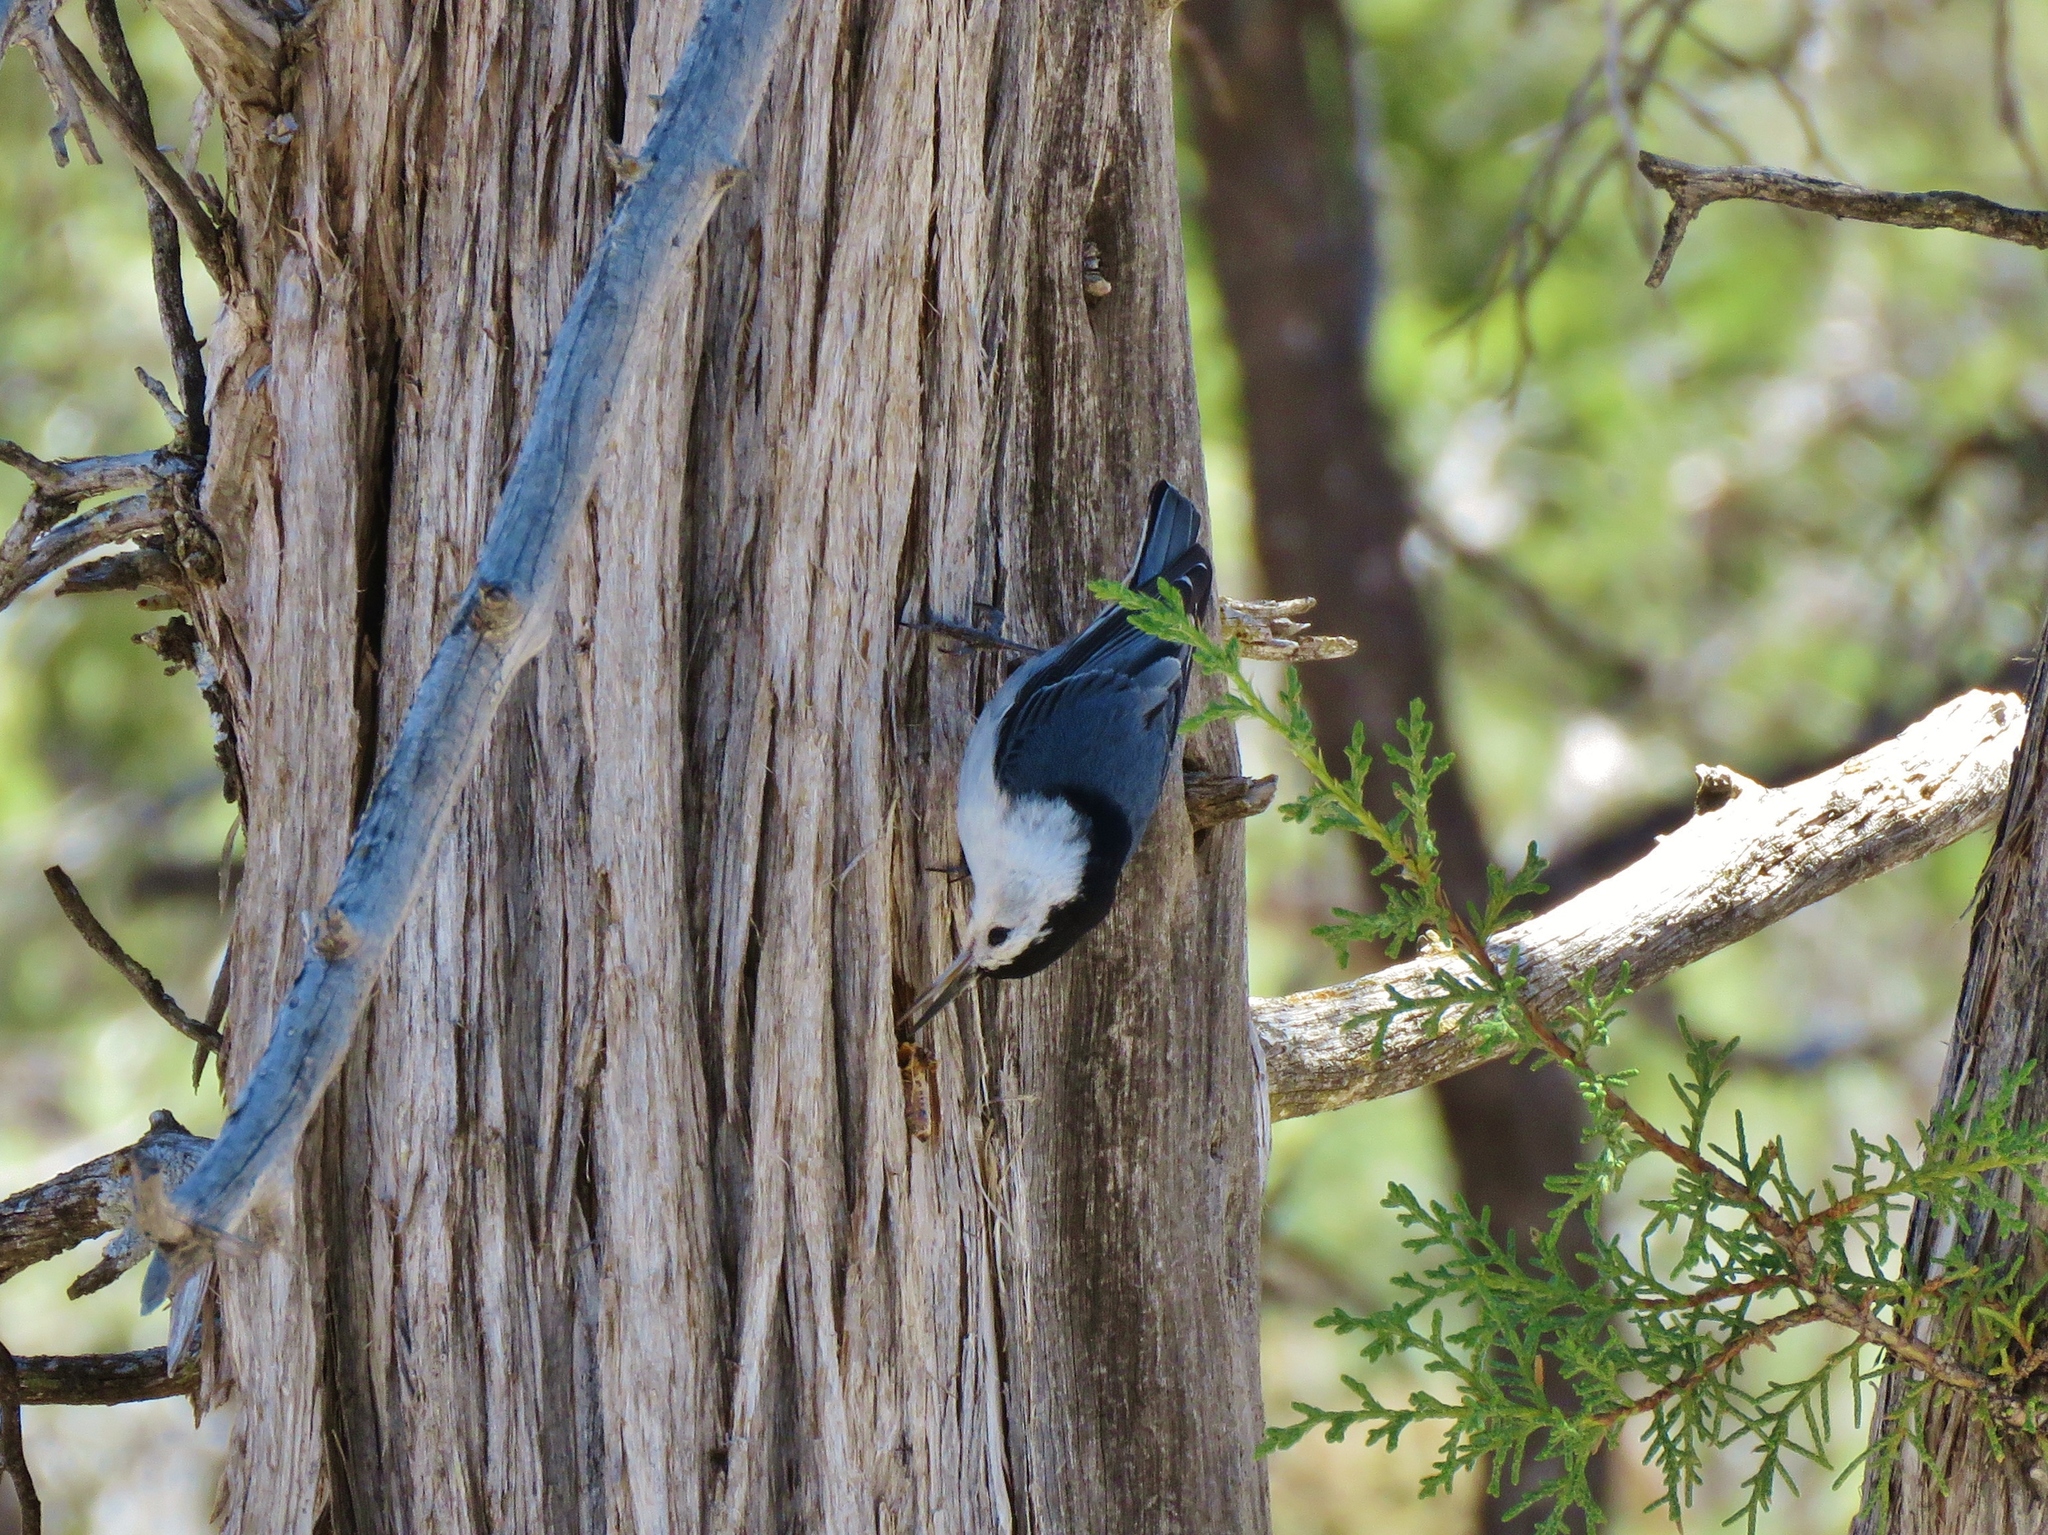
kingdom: Animalia
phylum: Chordata
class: Aves
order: Passeriformes
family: Sittidae
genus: Sitta
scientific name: Sitta carolinensis
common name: White-breasted nuthatch
